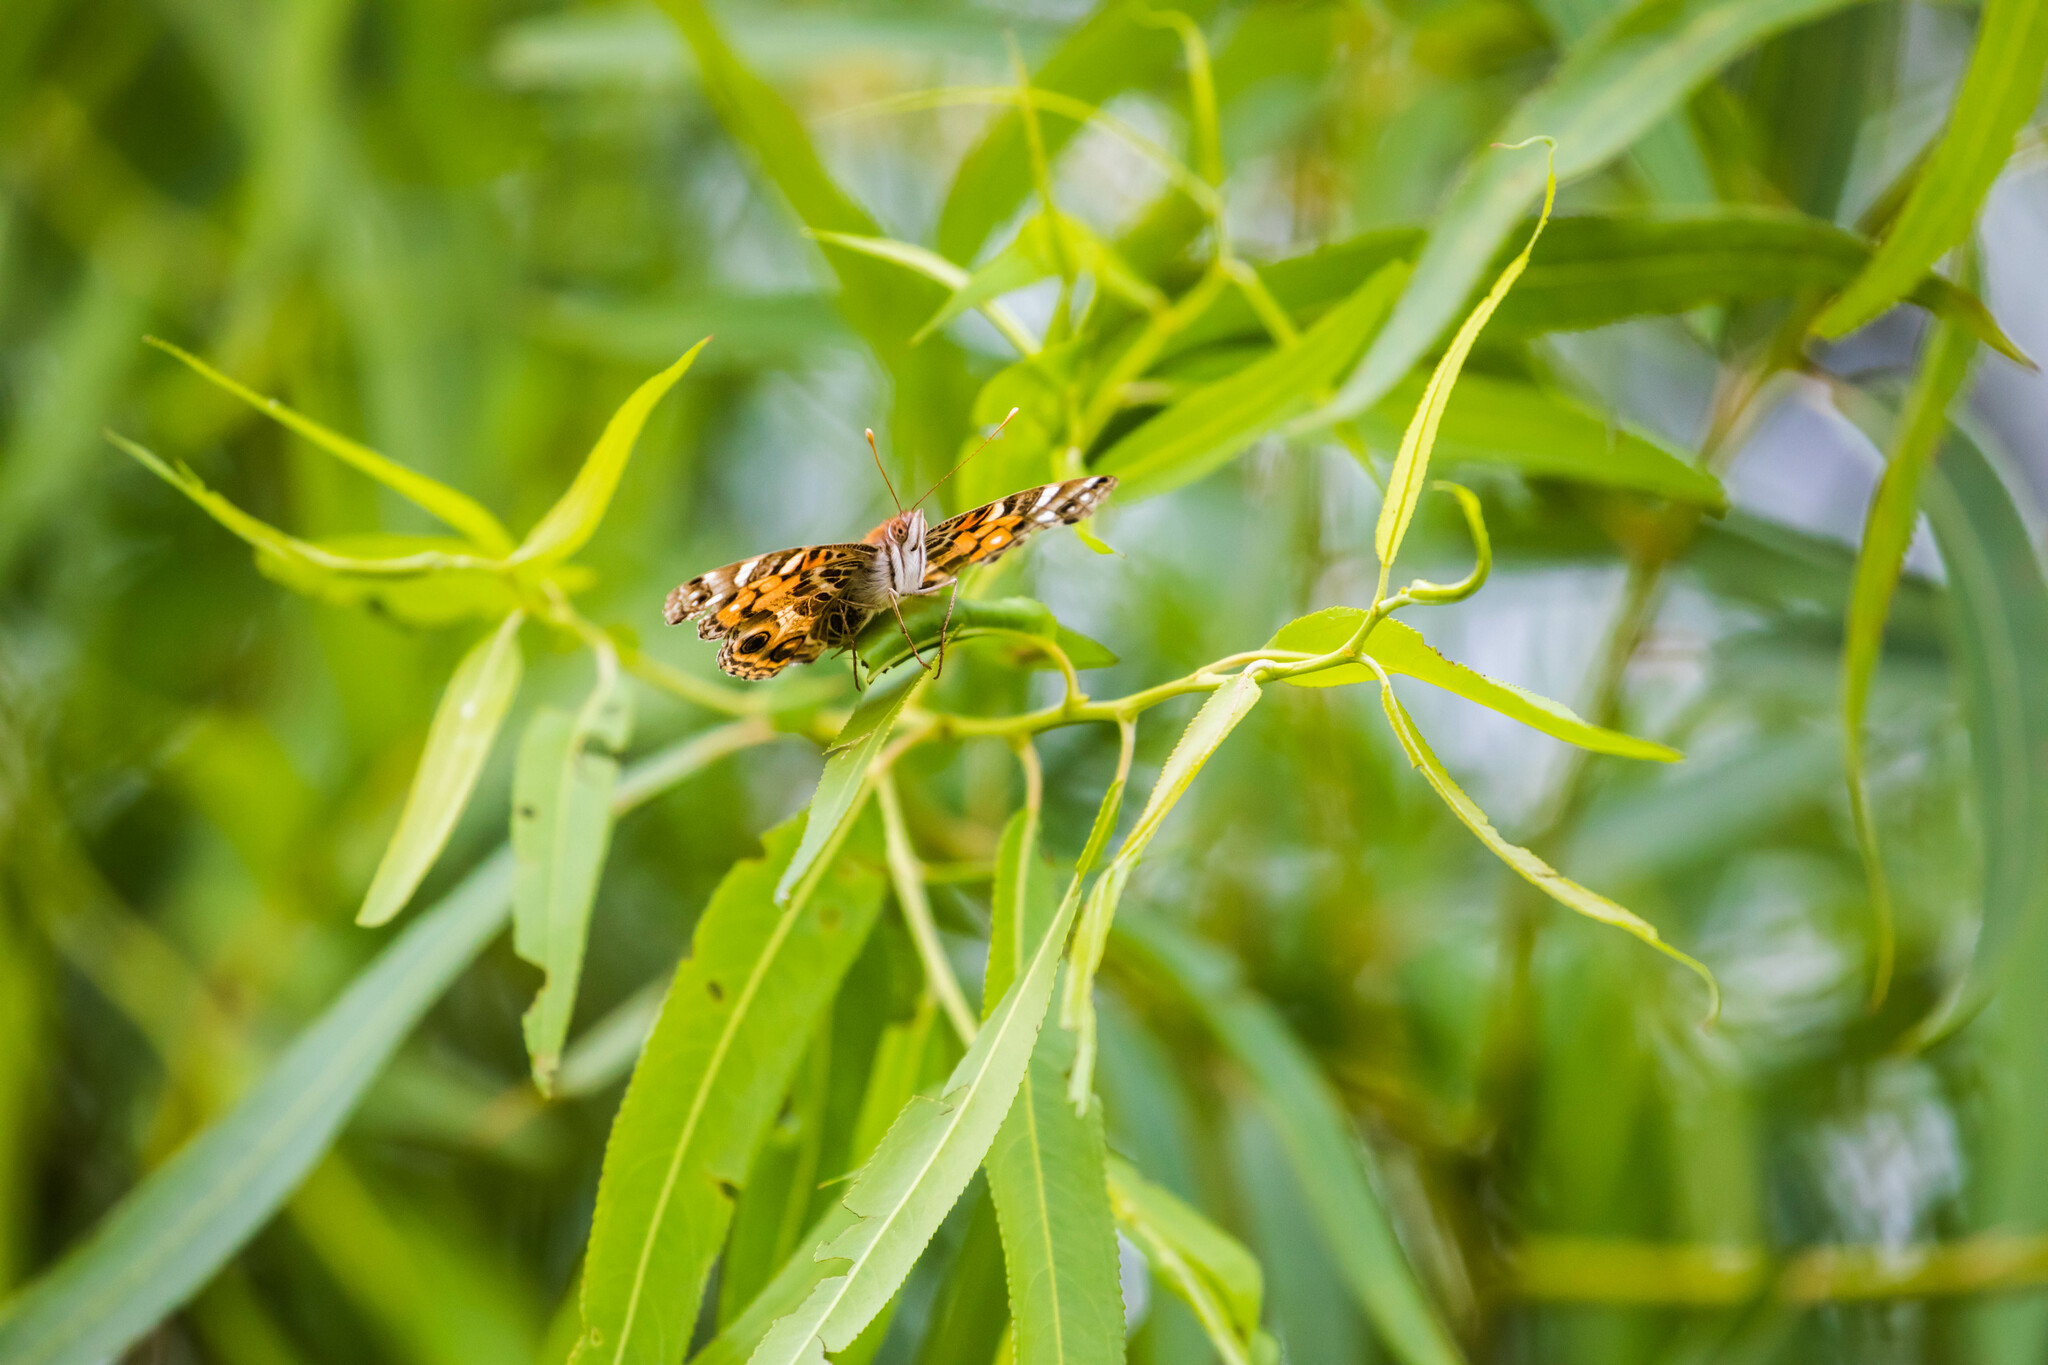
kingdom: Animalia
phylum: Arthropoda
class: Insecta
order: Lepidoptera
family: Nymphalidae
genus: Vanessa
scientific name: Vanessa virginiensis
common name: American lady
